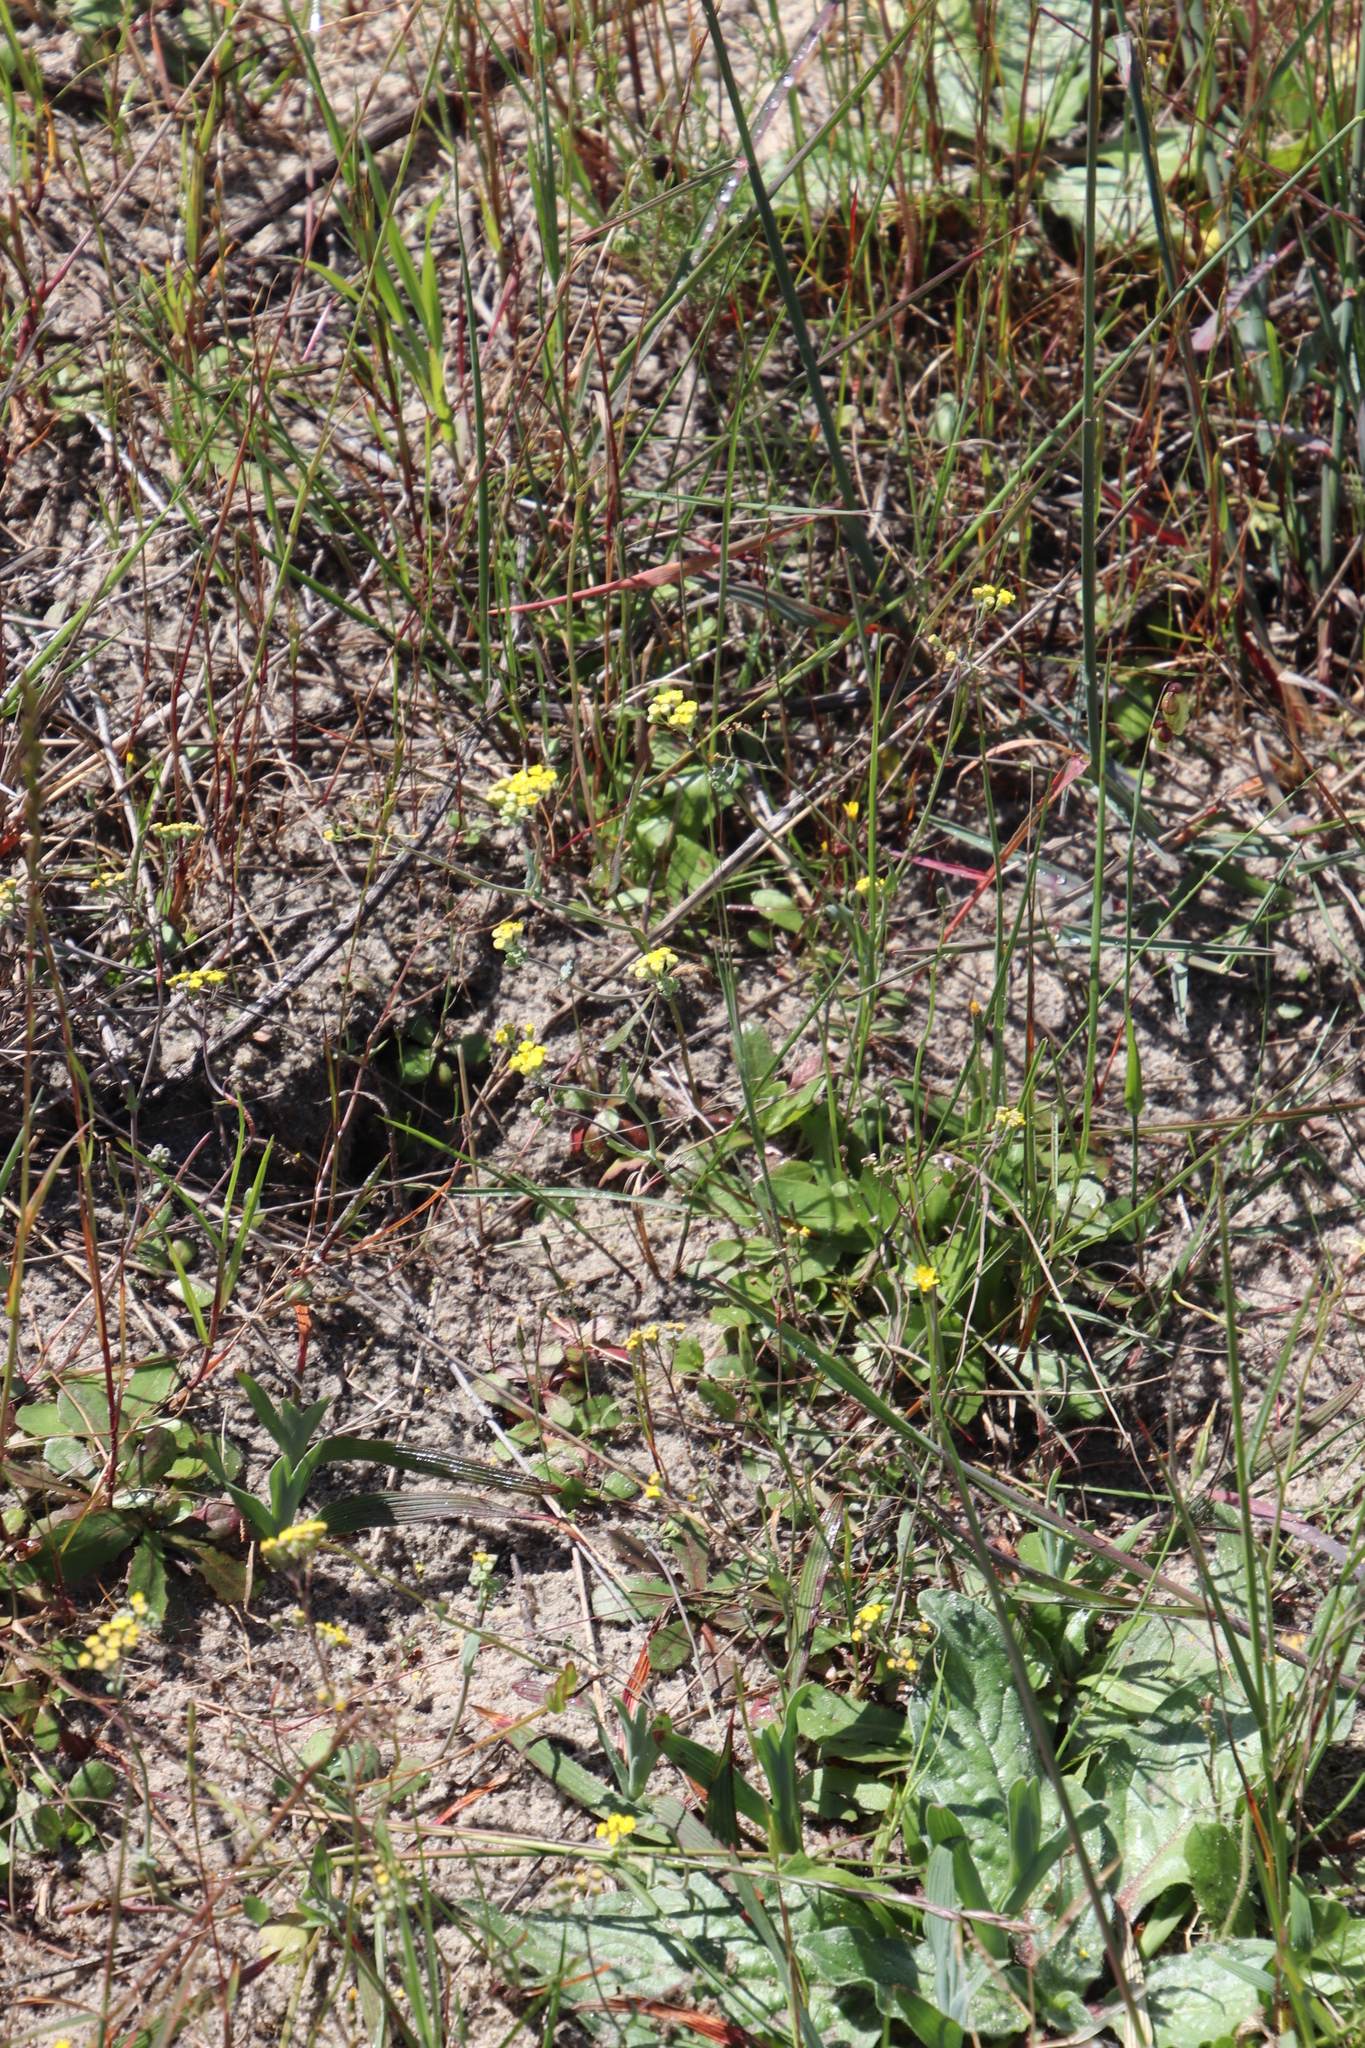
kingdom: Plantae
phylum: Tracheophyta
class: Magnoliopsida
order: Asterales
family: Asteraceae
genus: Gymnodiscus
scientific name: Gymnodiscus capillaris
